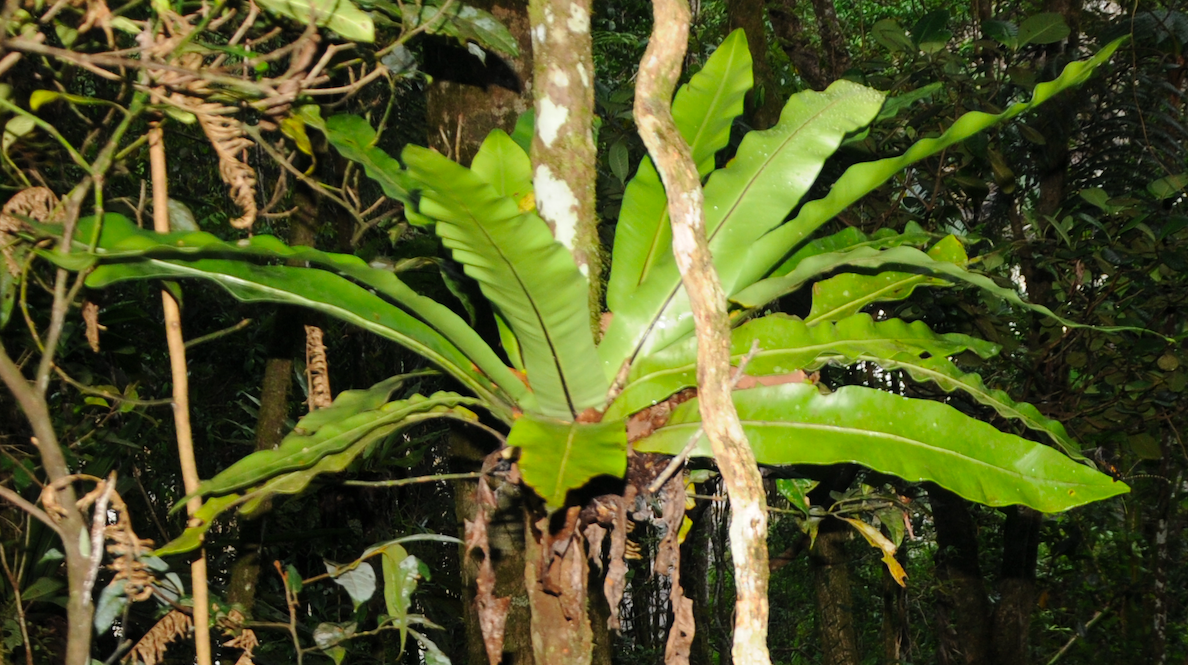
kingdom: Plantae
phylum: Tracheophyta
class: Polypodiopsida
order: Polypodiales
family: Aspleniaceae
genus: Asplenium
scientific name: Asplenium mauritianum
